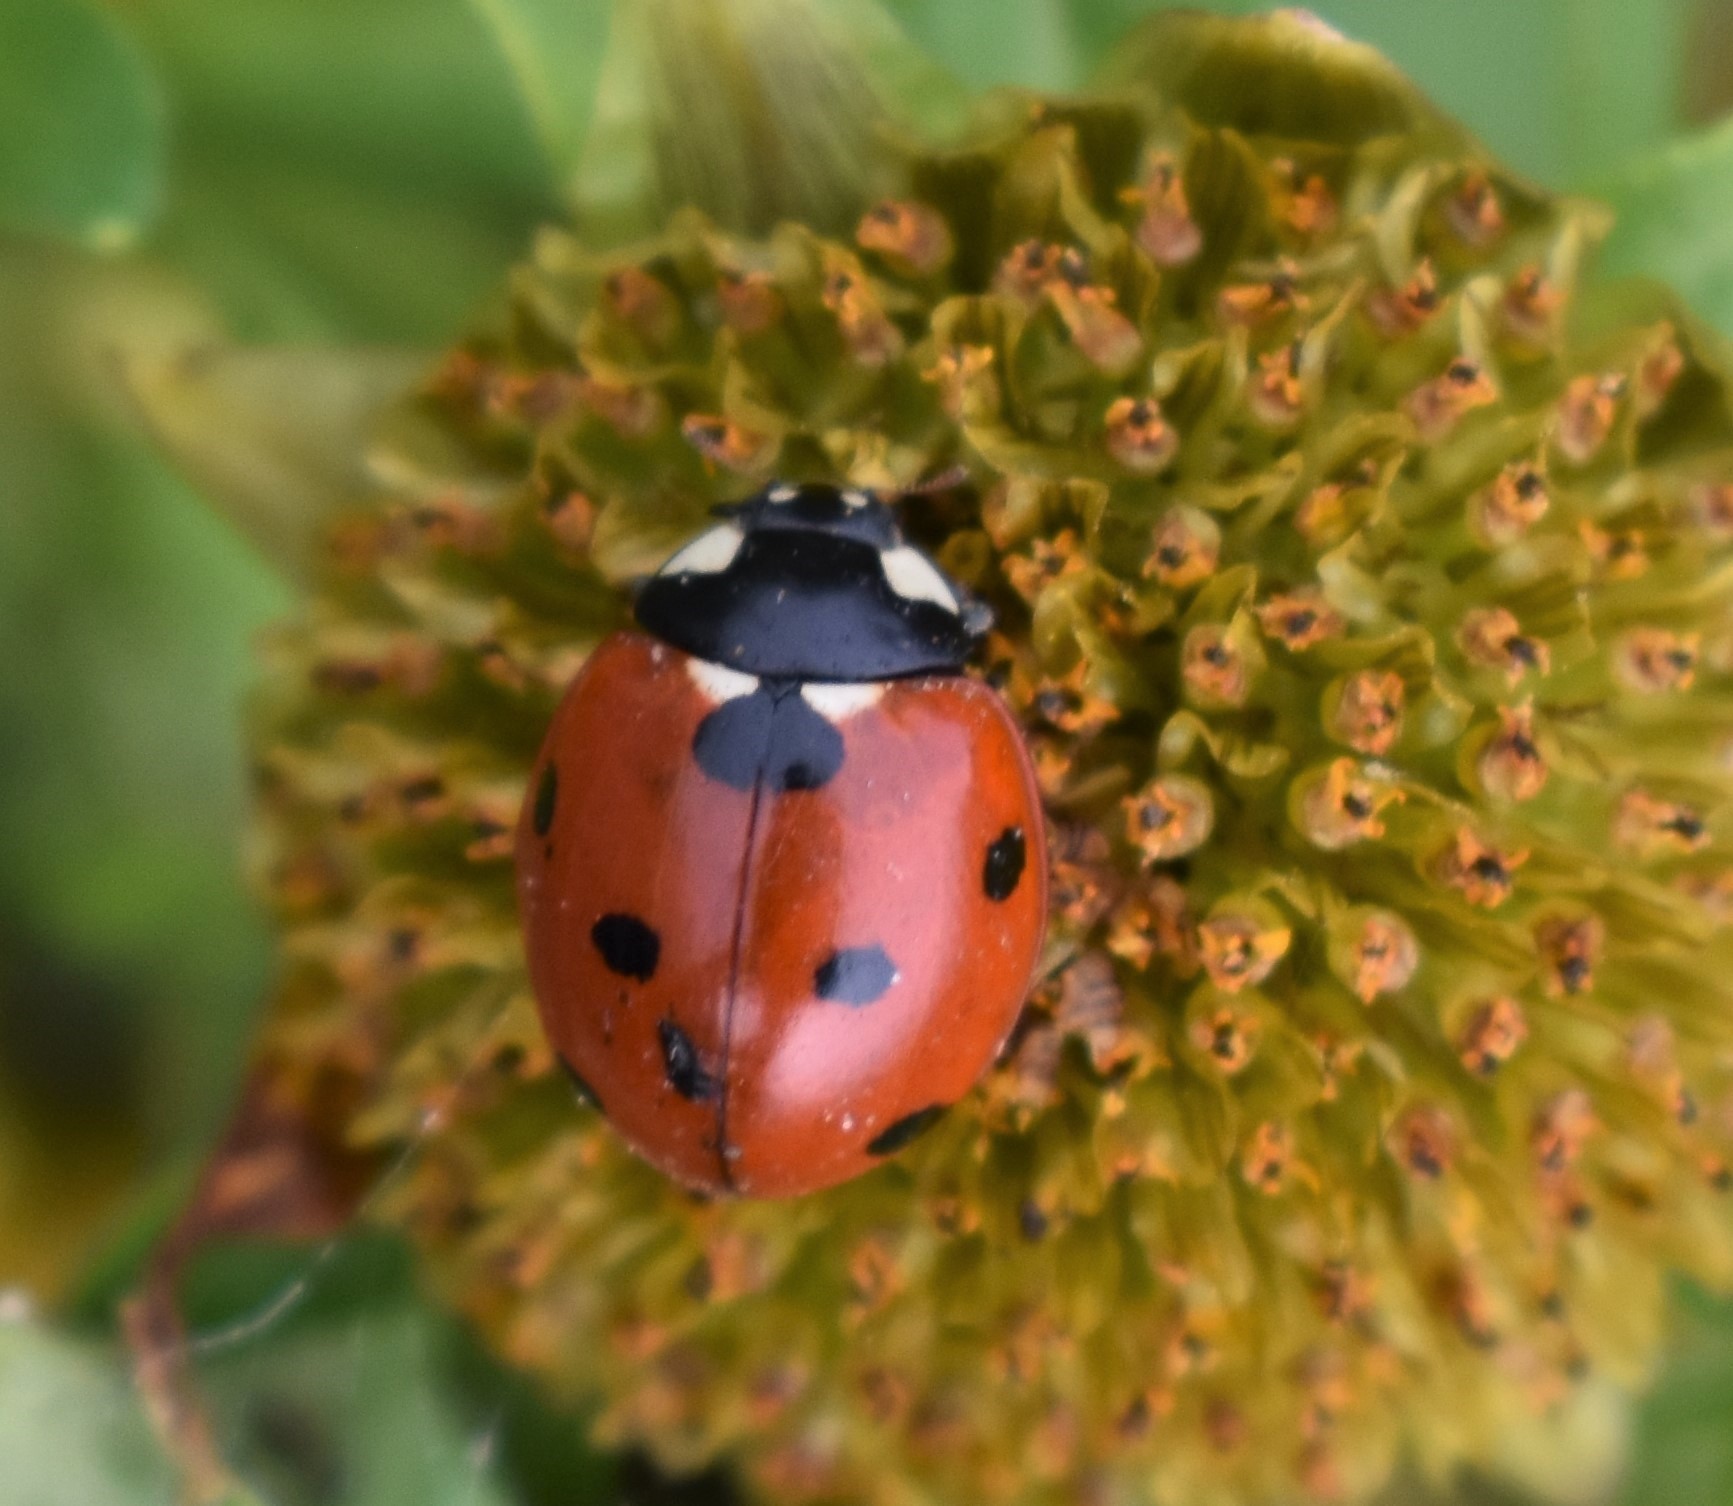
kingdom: Animalia
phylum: Arthropoda
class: Insecta
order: Coleoptera
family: Coccinellidae
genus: Coccinella
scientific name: Coccinella septempunctata
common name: Sevenspotted lady beetle
